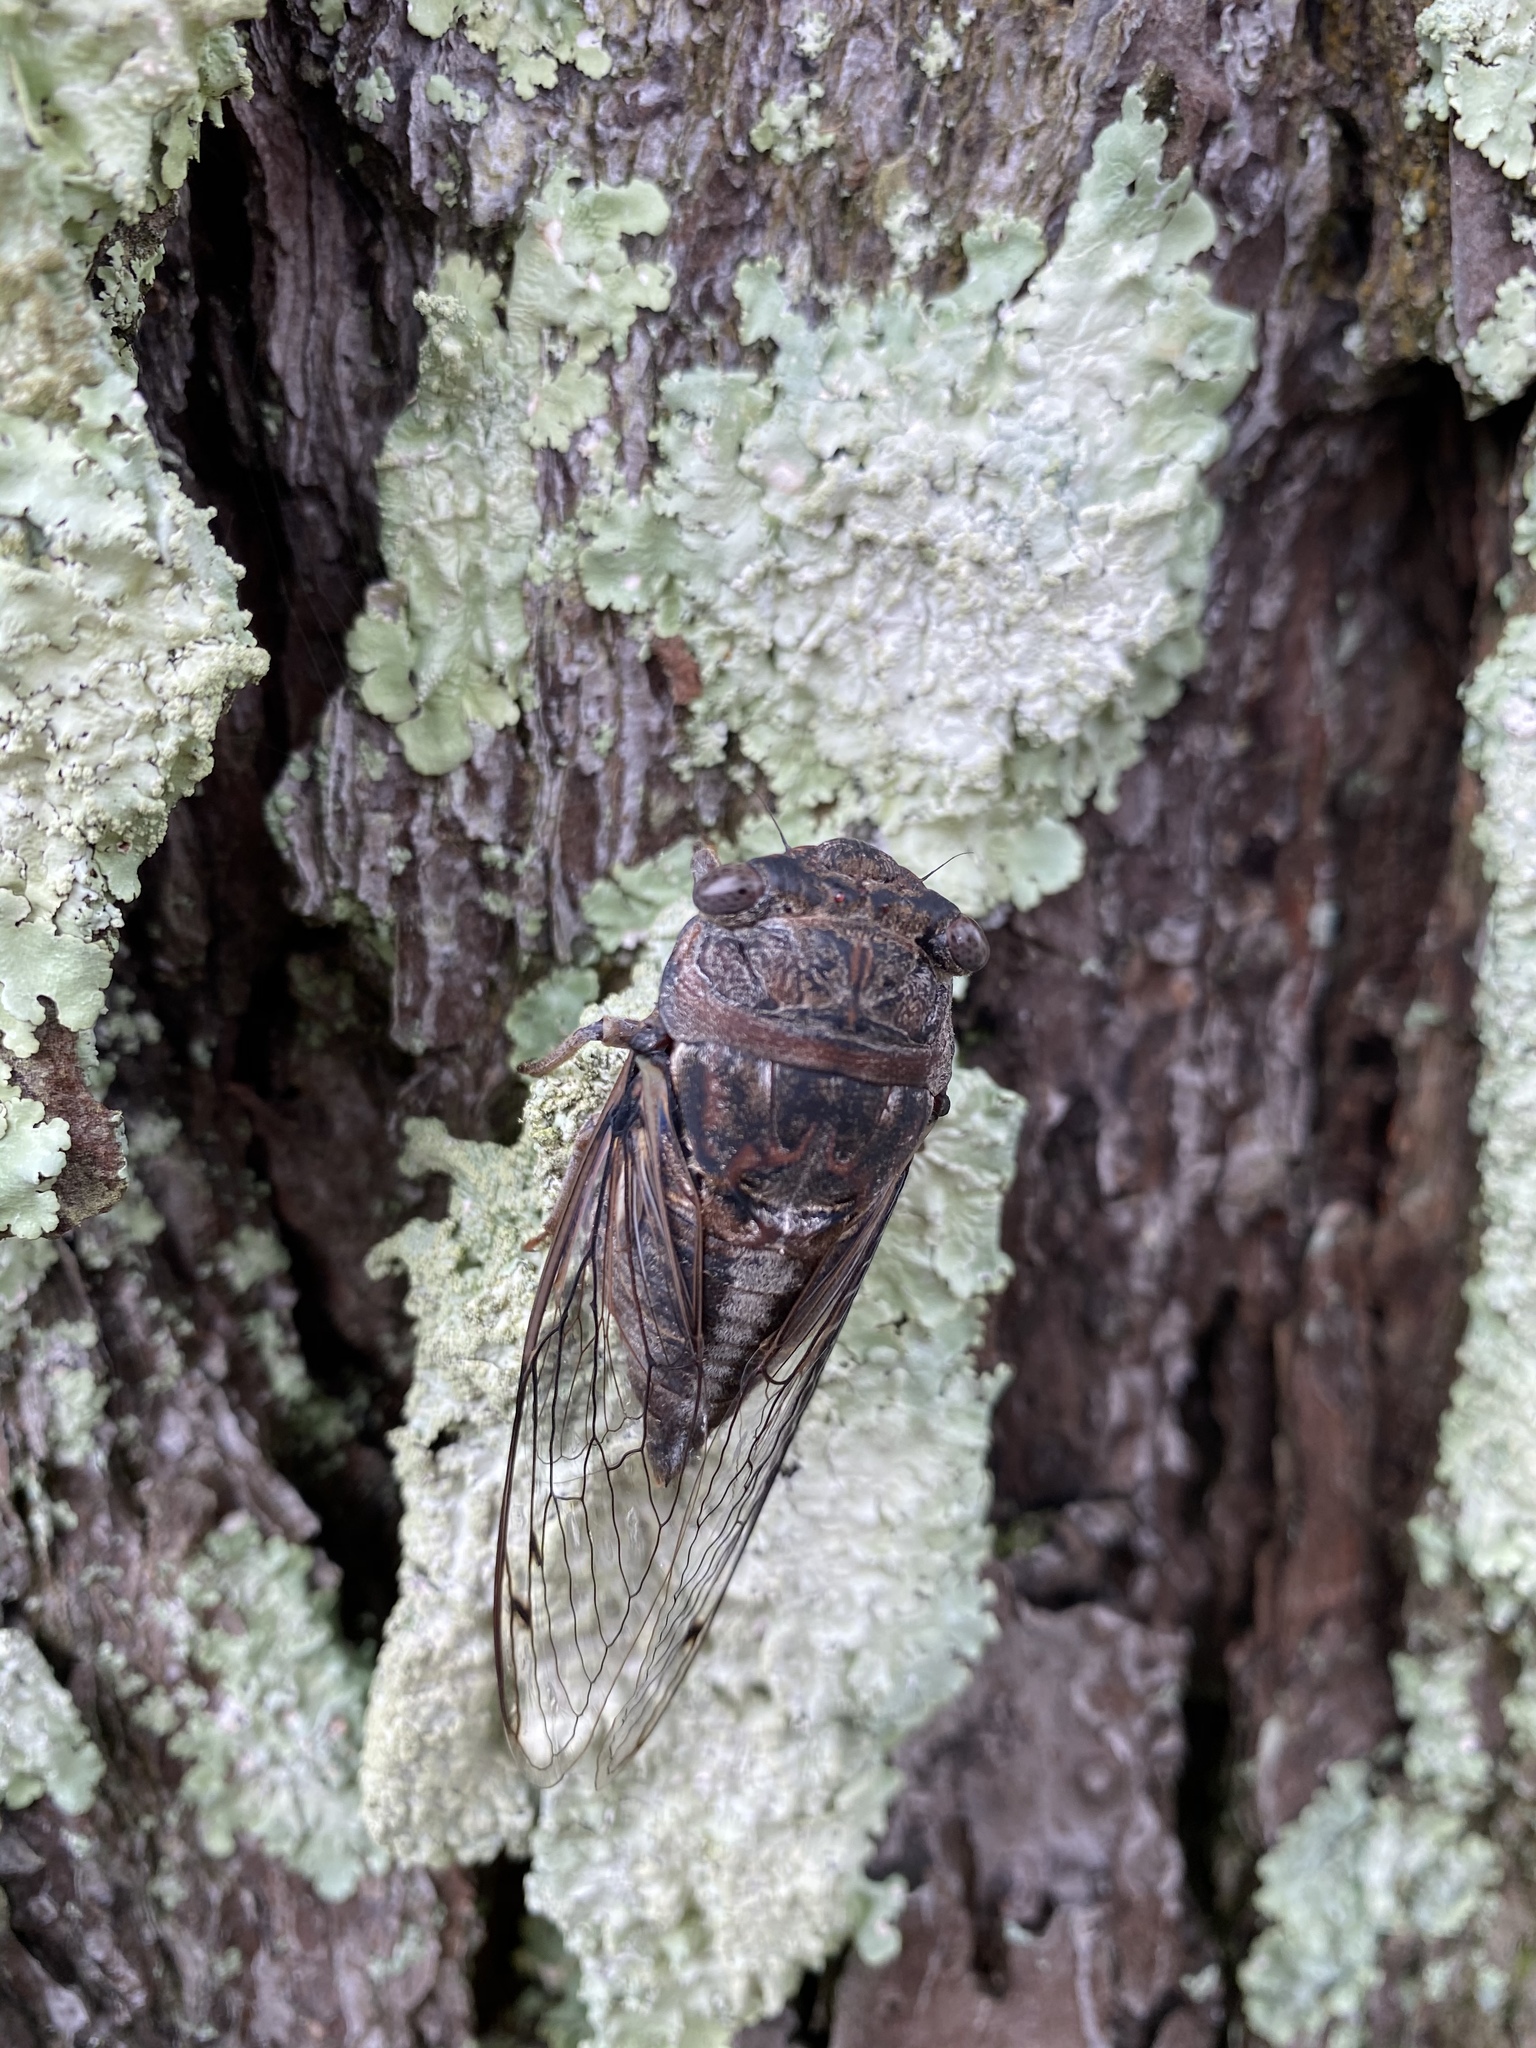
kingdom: Animalia
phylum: Arthropoda
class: Insecta
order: Hemiptera
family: Cicadidae
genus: Megatibicen
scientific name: Megatibicen figuratus
